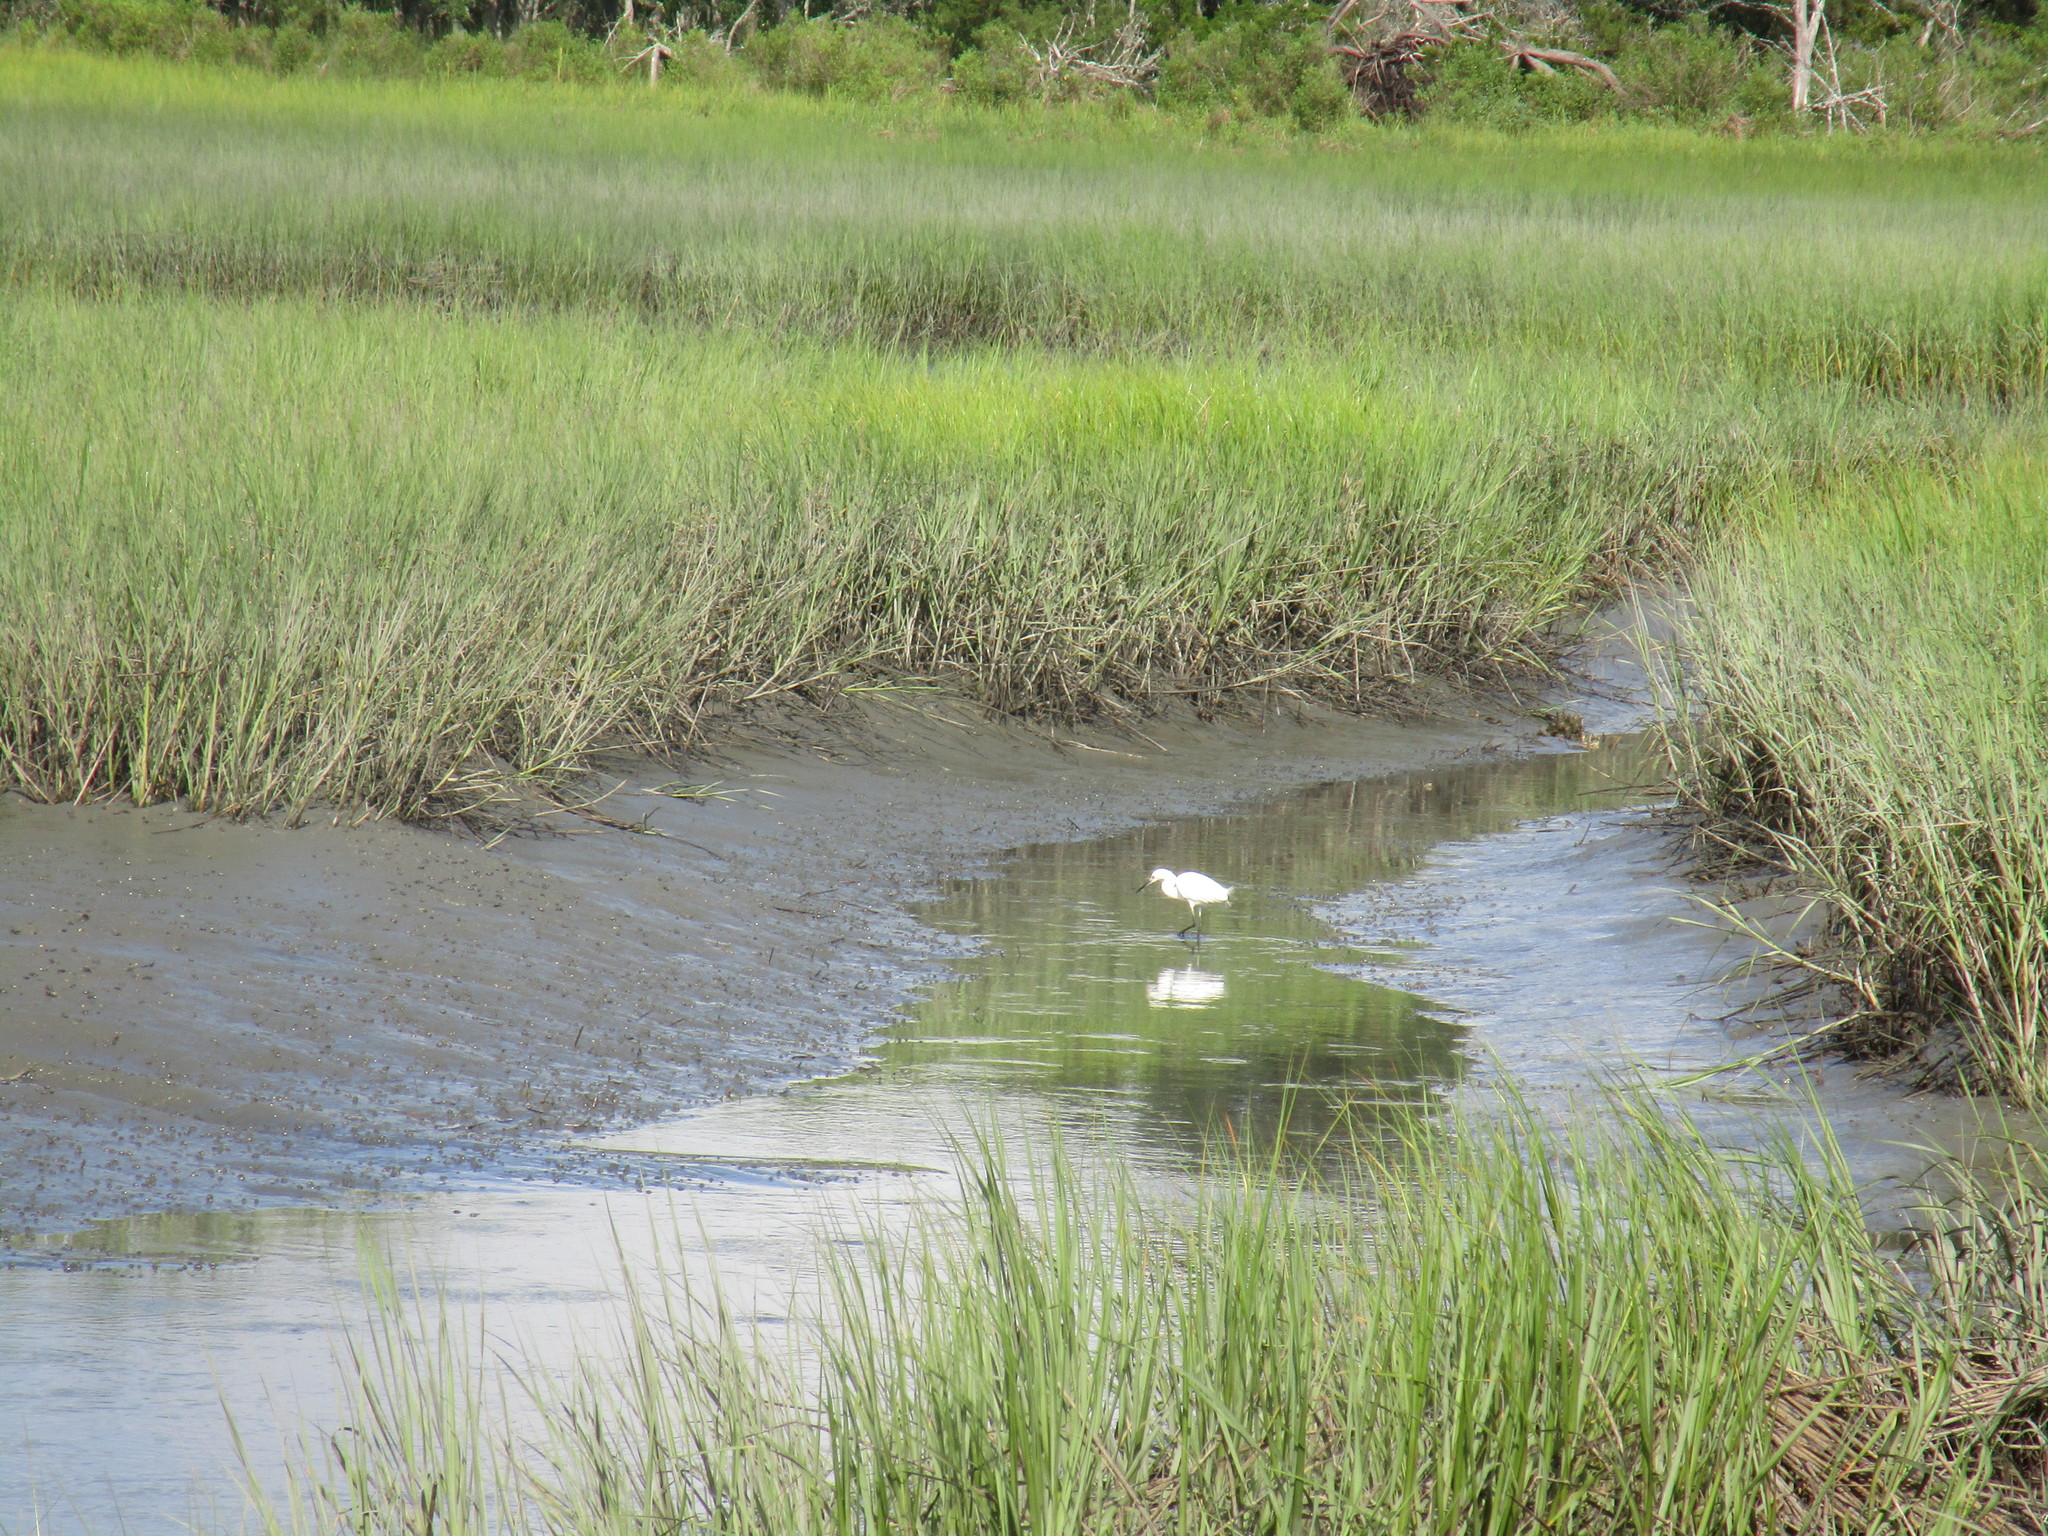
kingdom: Animalia
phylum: Chordata
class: Aves
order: Pelecaniformes
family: Ardeidae
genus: Egretta
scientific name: Egretta thula
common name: Snowy egret
